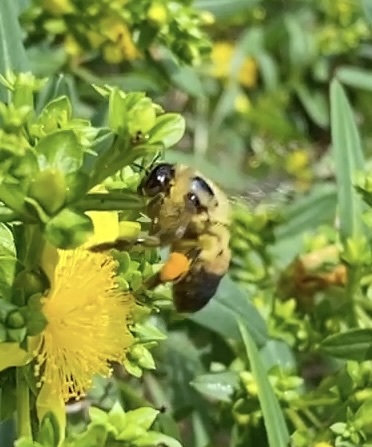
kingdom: Animalia
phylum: Arthropoda
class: Insecta
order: Hymenoptera
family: Apidae
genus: Bombus
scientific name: Bombus griseocollis
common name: Brown-belted bumble bee
